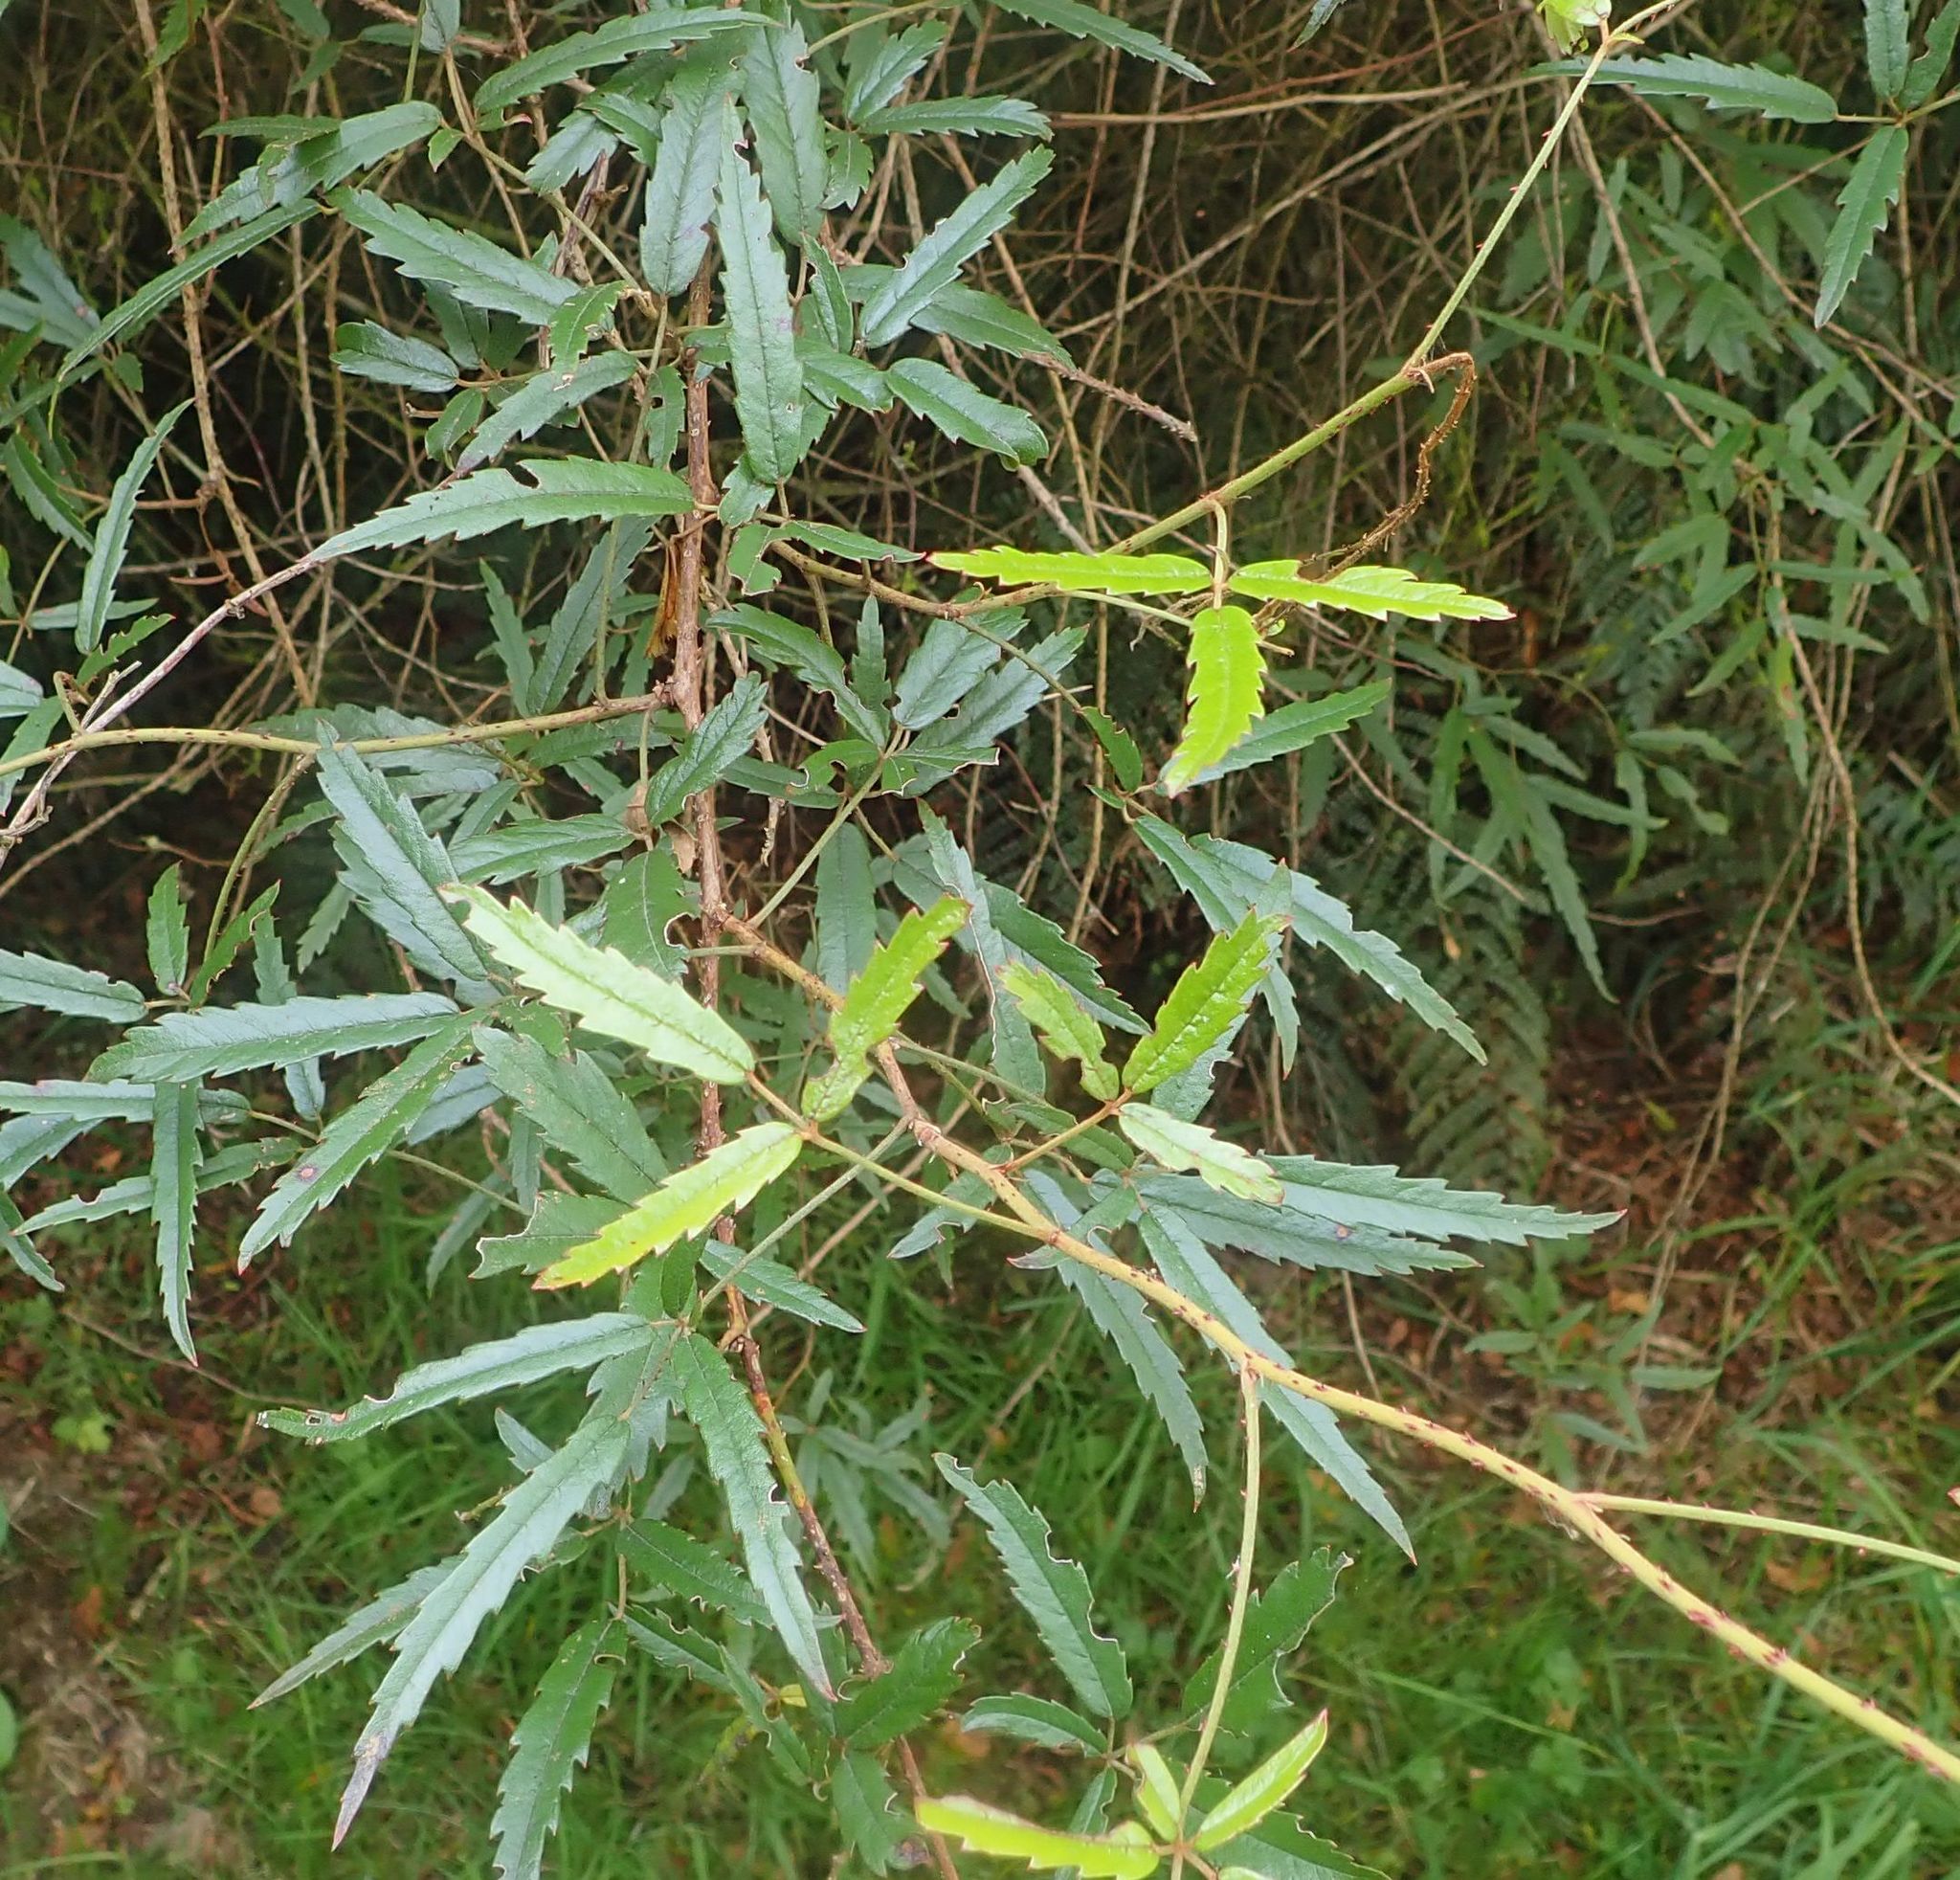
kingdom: Plantae
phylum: Tracheophyta
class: Magnoliopsida
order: Rosales
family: Rosaceae
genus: Rubus
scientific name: Rubus schmidelioides
